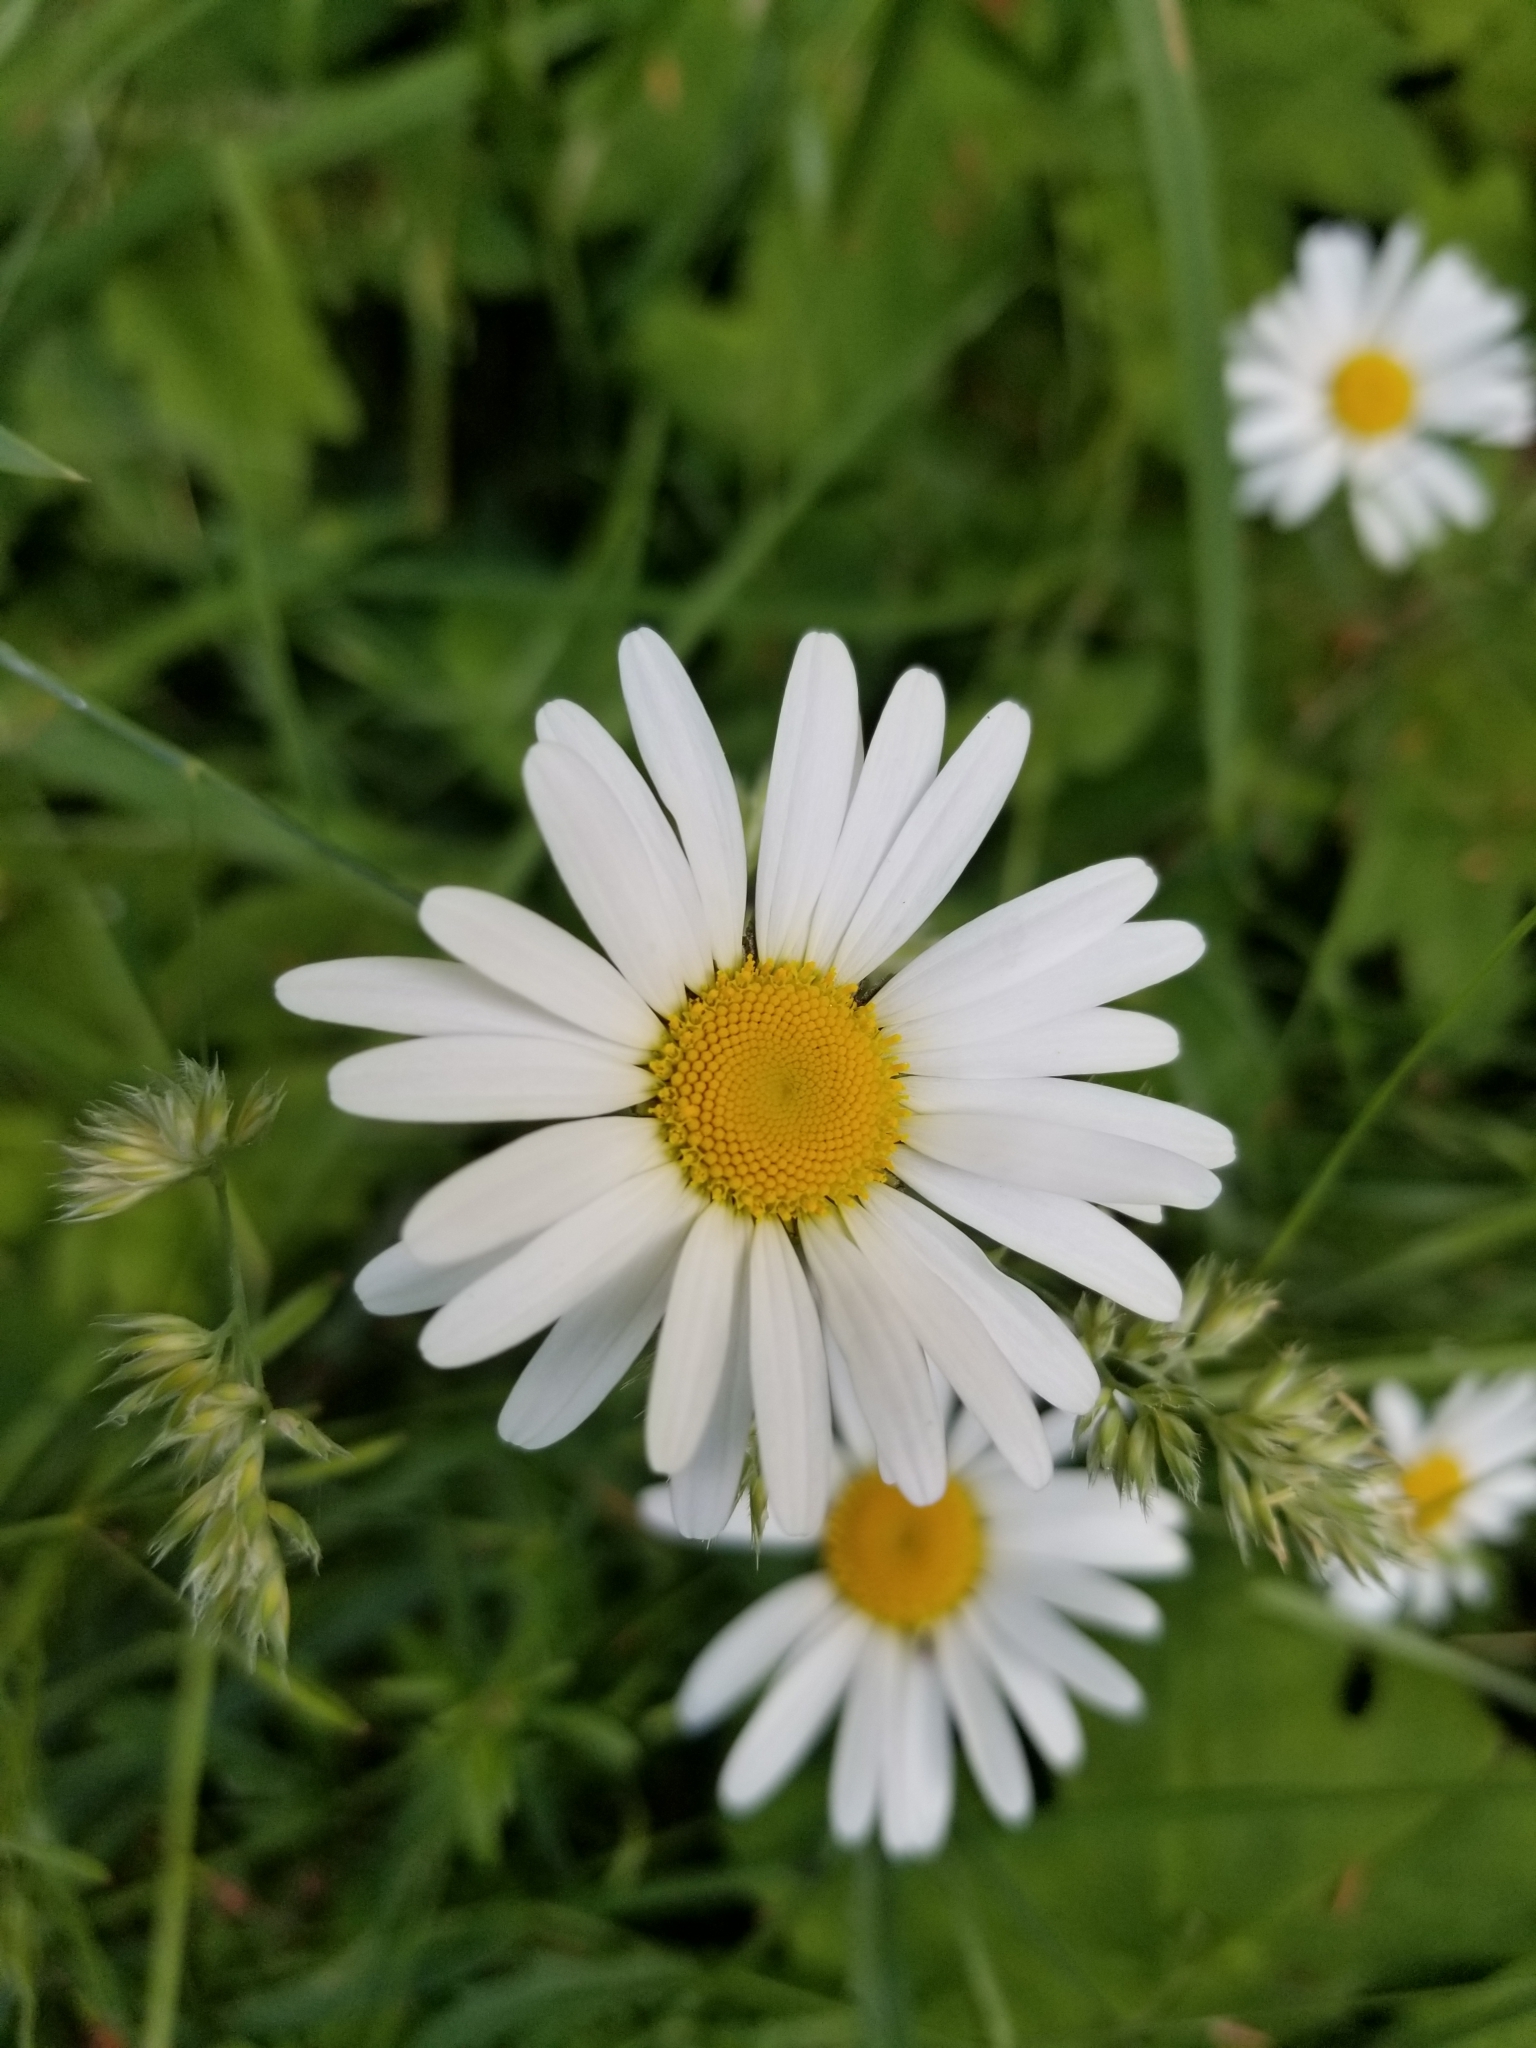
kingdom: Plantae
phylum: Tracheophyta
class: Magnoliopsida
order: Asterales
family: Asteraceae
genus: Leucanthemum
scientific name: Leucanthemum vulgare
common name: Oxeye daisy
